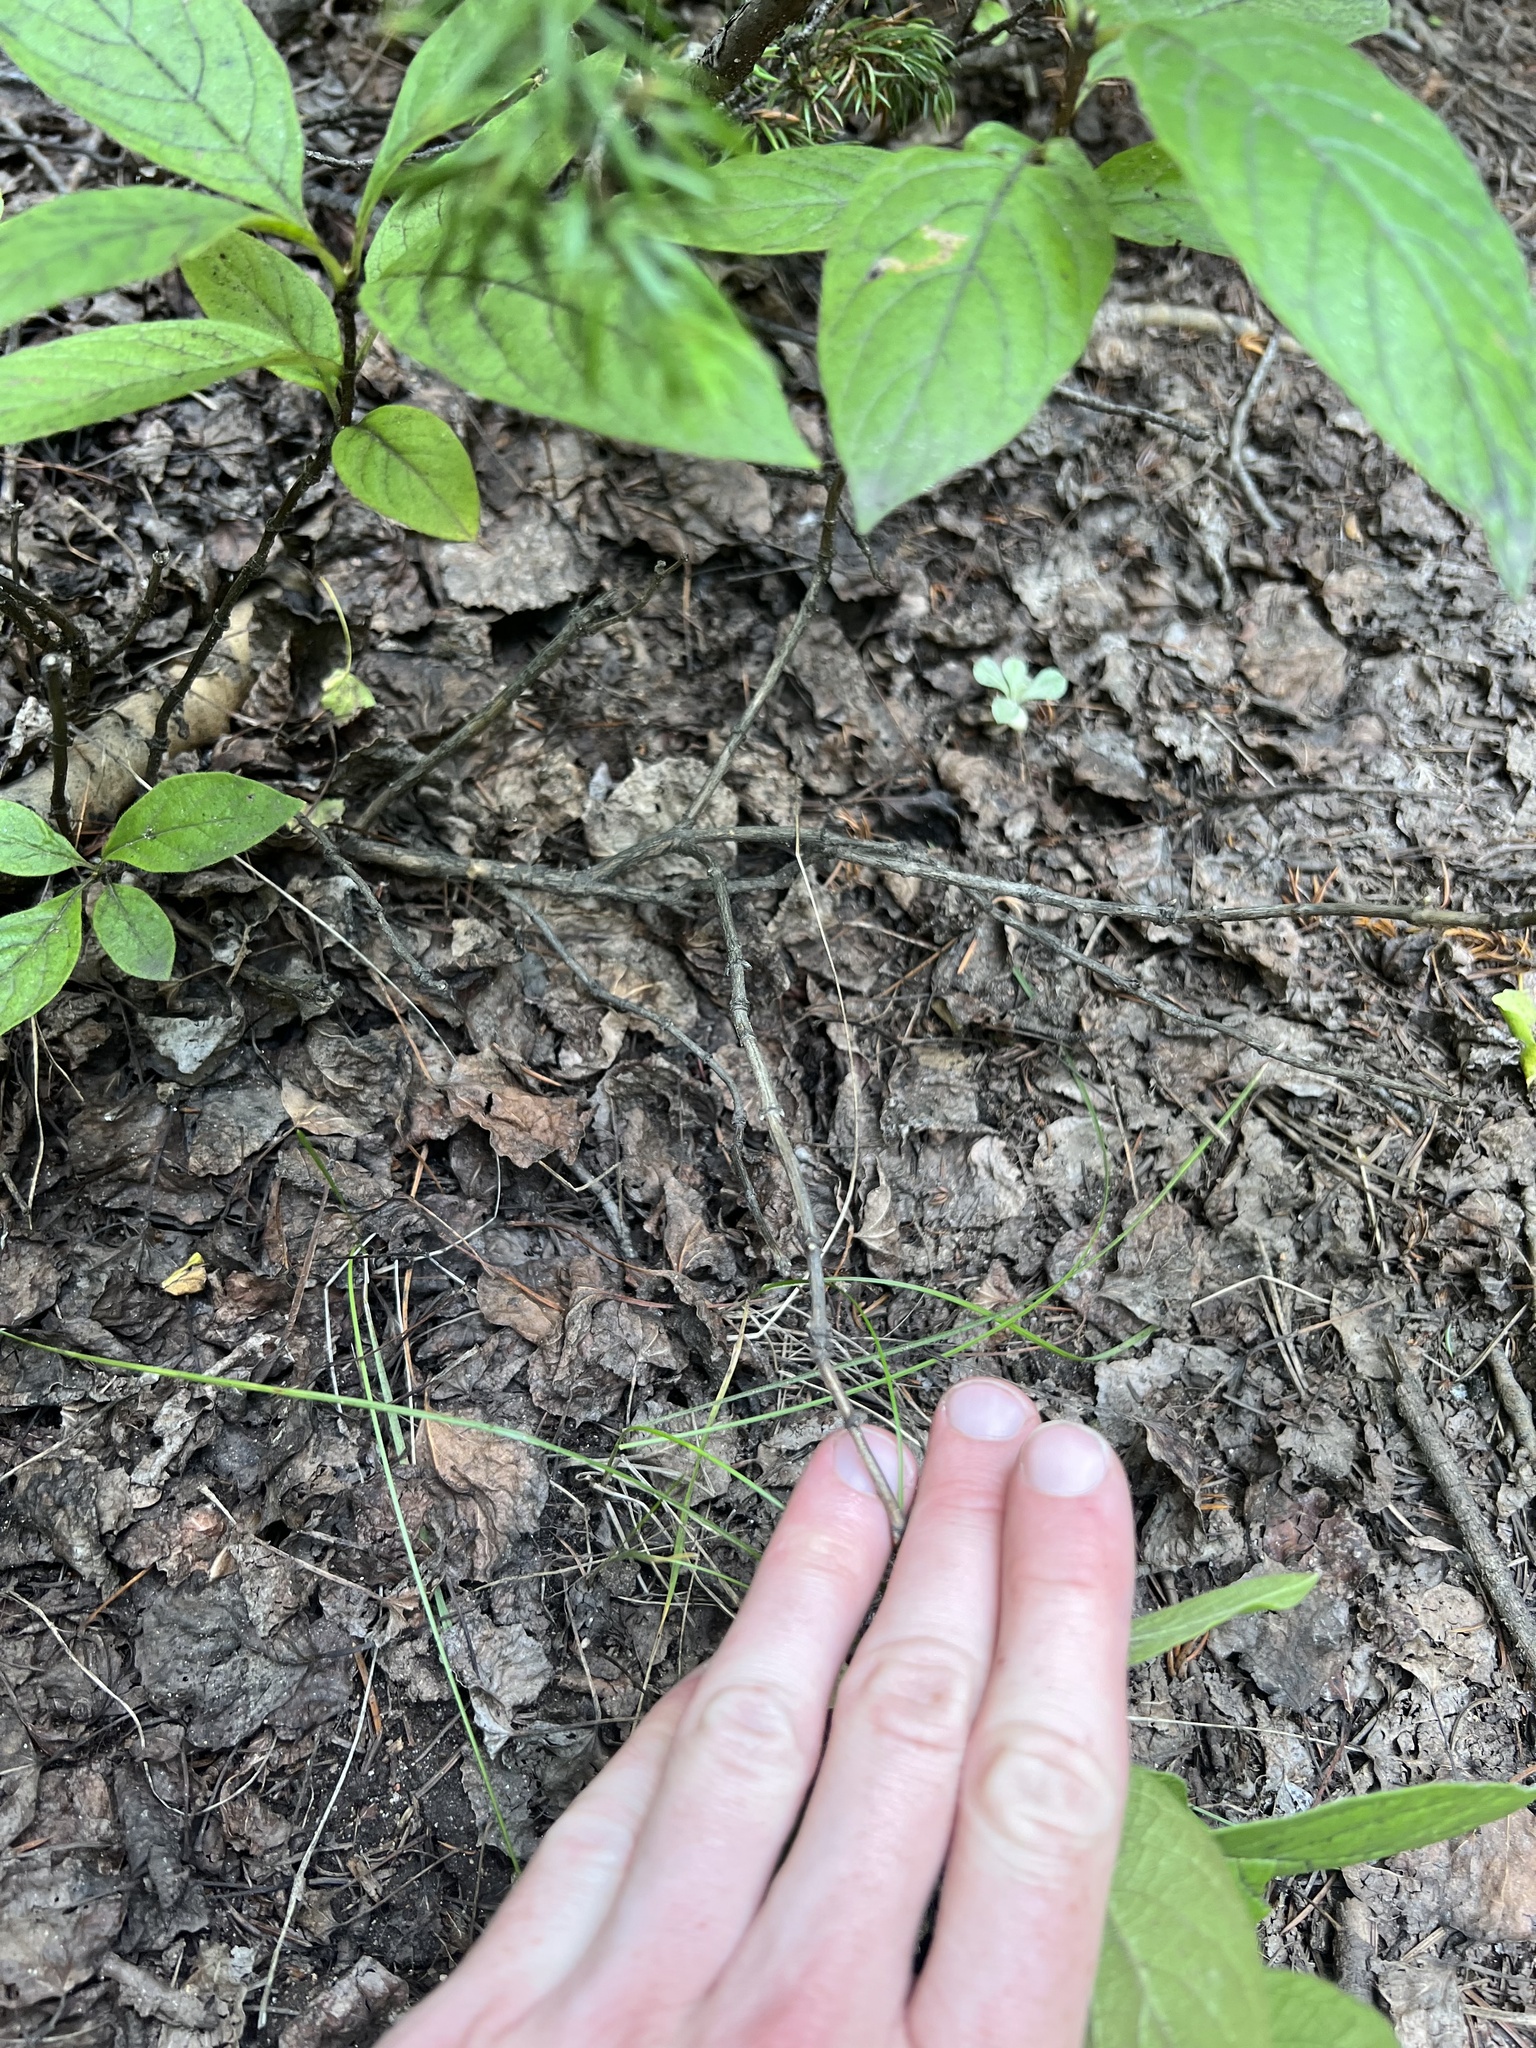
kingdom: Plantae
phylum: Tracheophyta
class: Magnoliopsida
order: Dipsacales
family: Caprifoliaceae
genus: Lonicera
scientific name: Lonicera involucrata
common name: Californian honeysuckle
